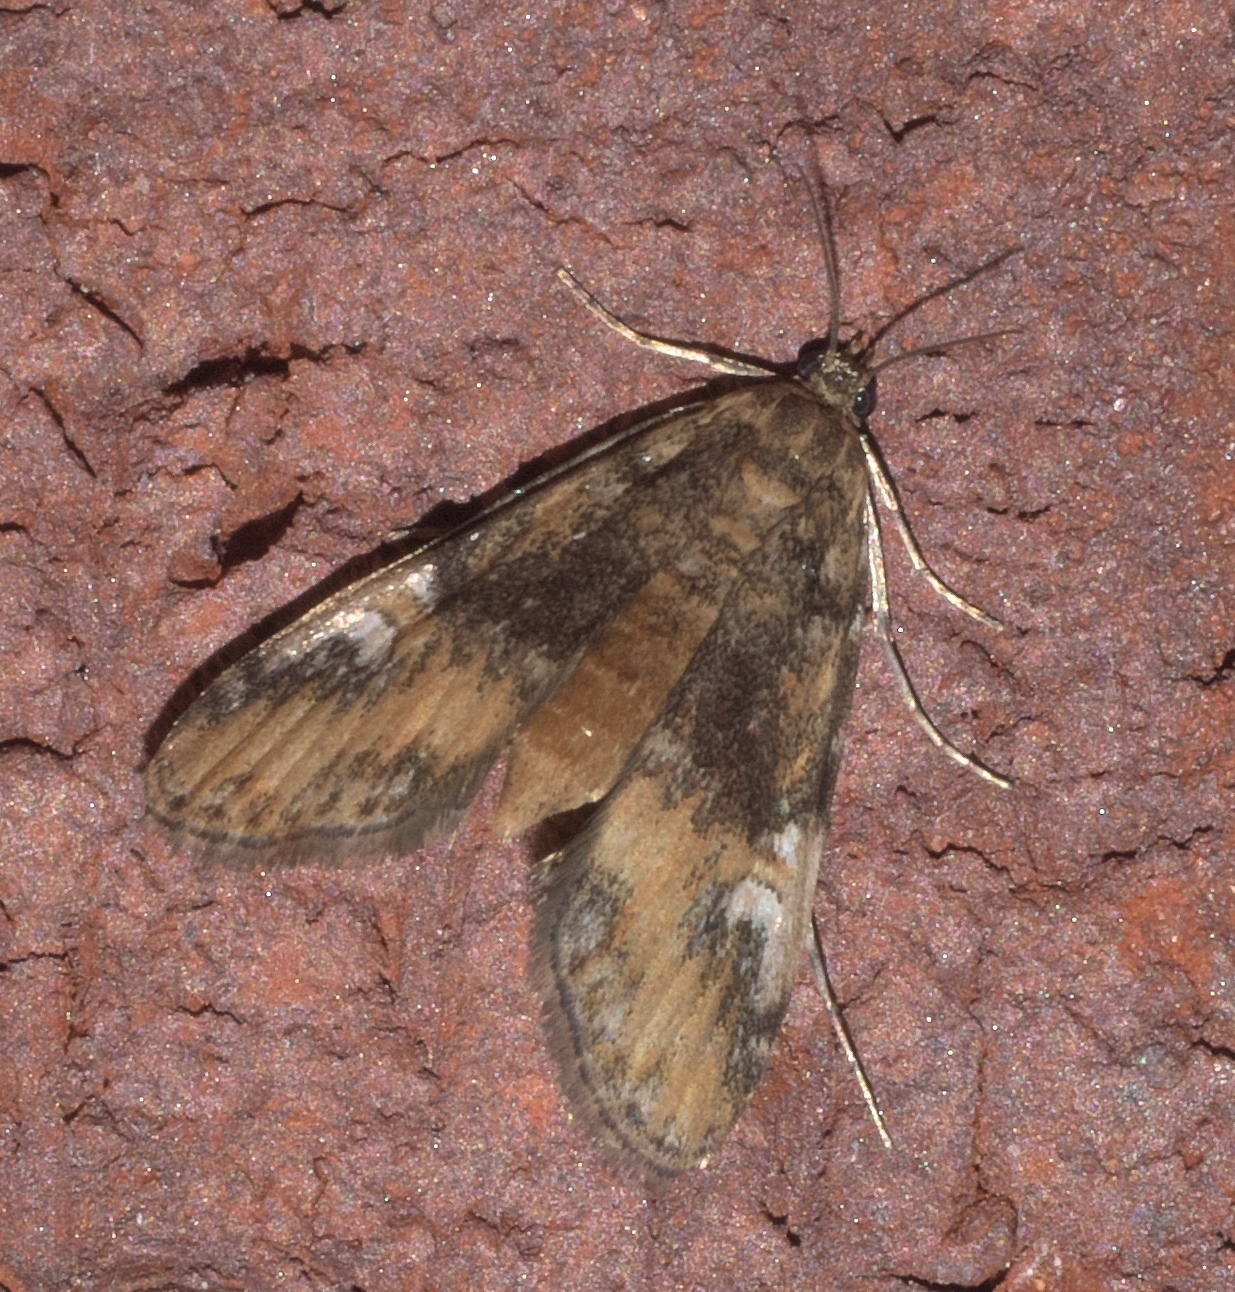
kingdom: Animalia
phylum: Arthropoda
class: Insecta
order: Lepidoptera
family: Crambidae
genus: Elophila
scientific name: Elophila obliteralis
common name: Waterlily leafcutter moth
